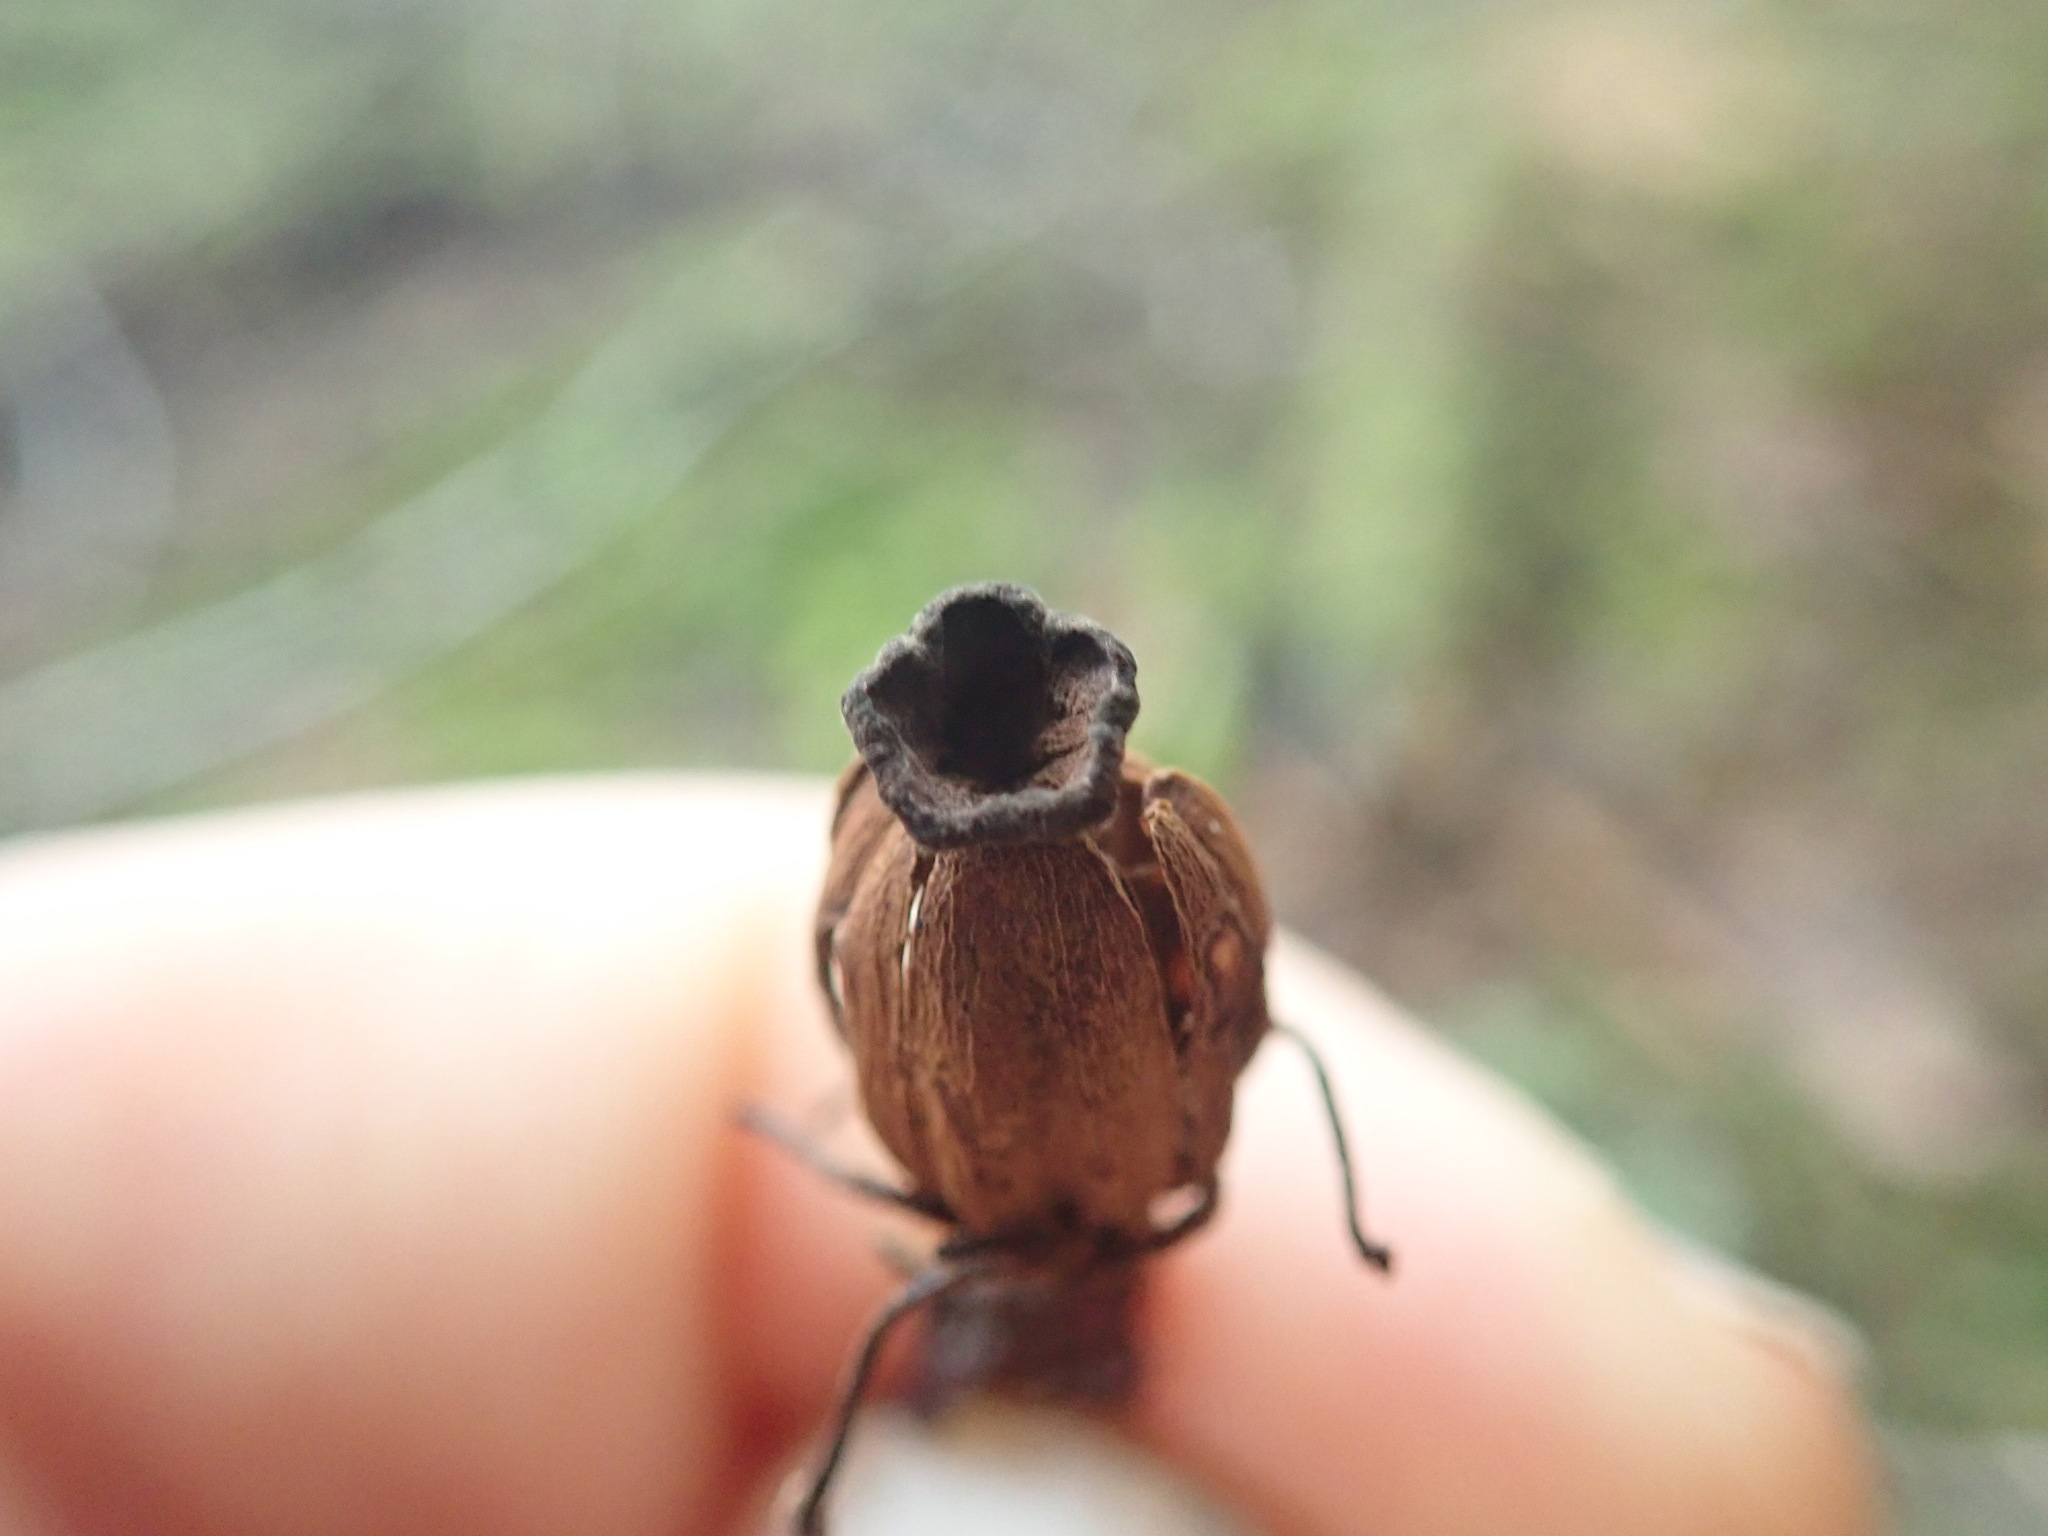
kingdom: Plantae
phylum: Tracheophyta
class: Magnoliopsida
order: Ericales
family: Ericaceae
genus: Monotropa
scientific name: Monotropa uniflora
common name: Convulsion root
